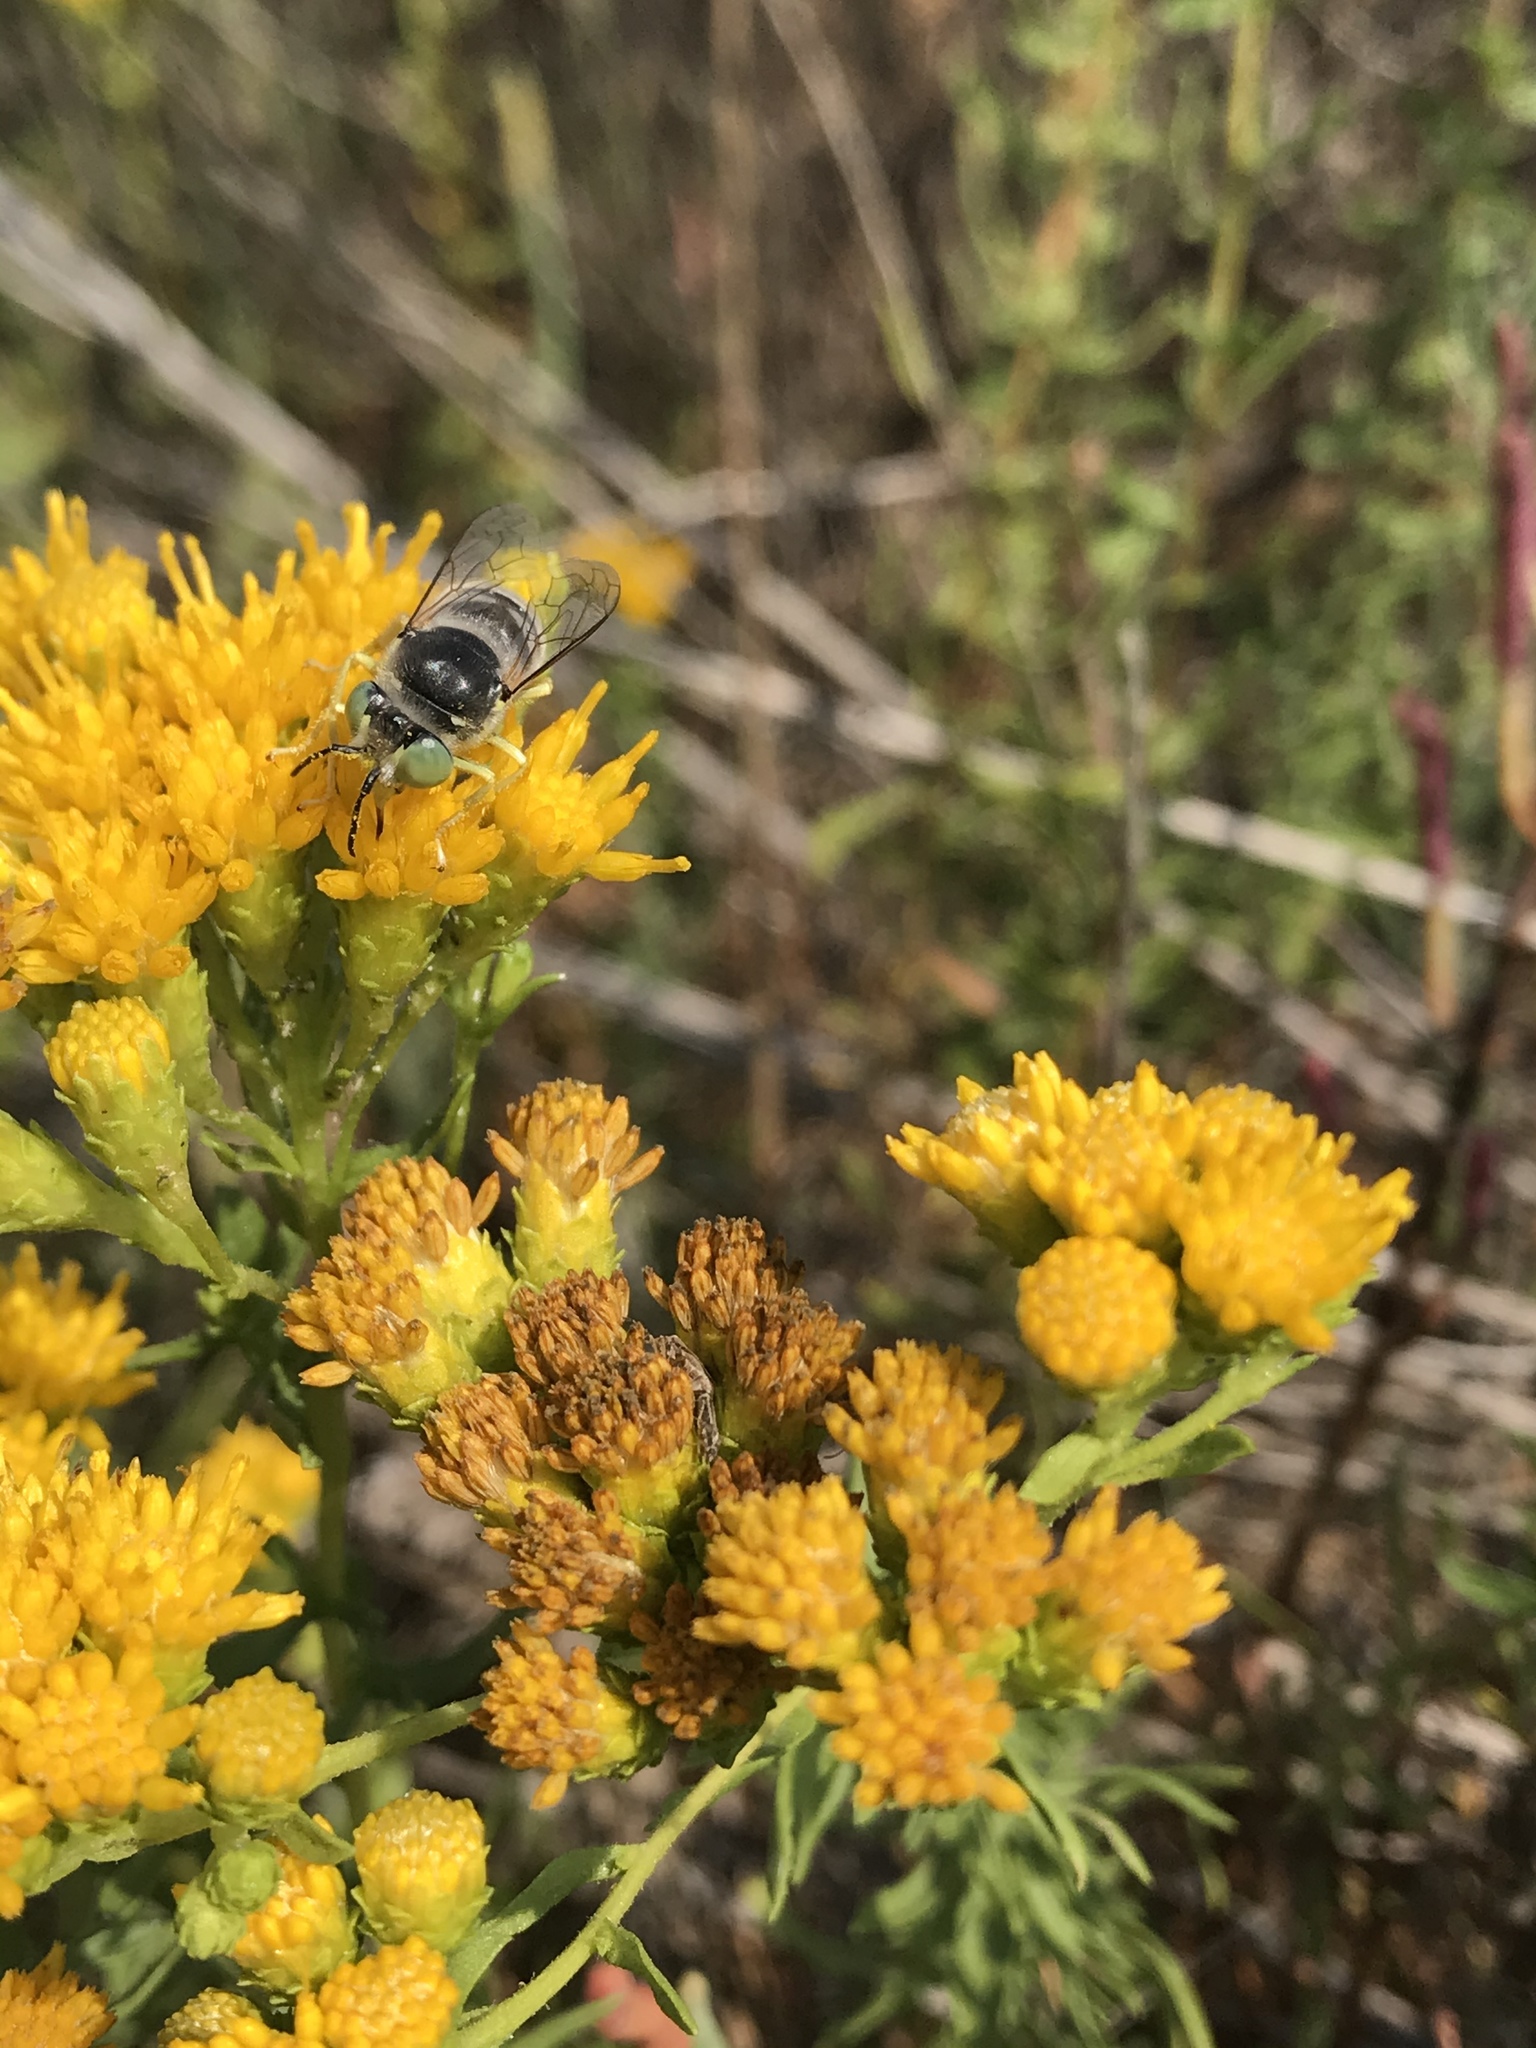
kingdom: Animalia
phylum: Arthropoda
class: Insecta
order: Hymenoptera
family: Crabronidae
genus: Bembix
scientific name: Bembix americana
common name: American sand wasp
